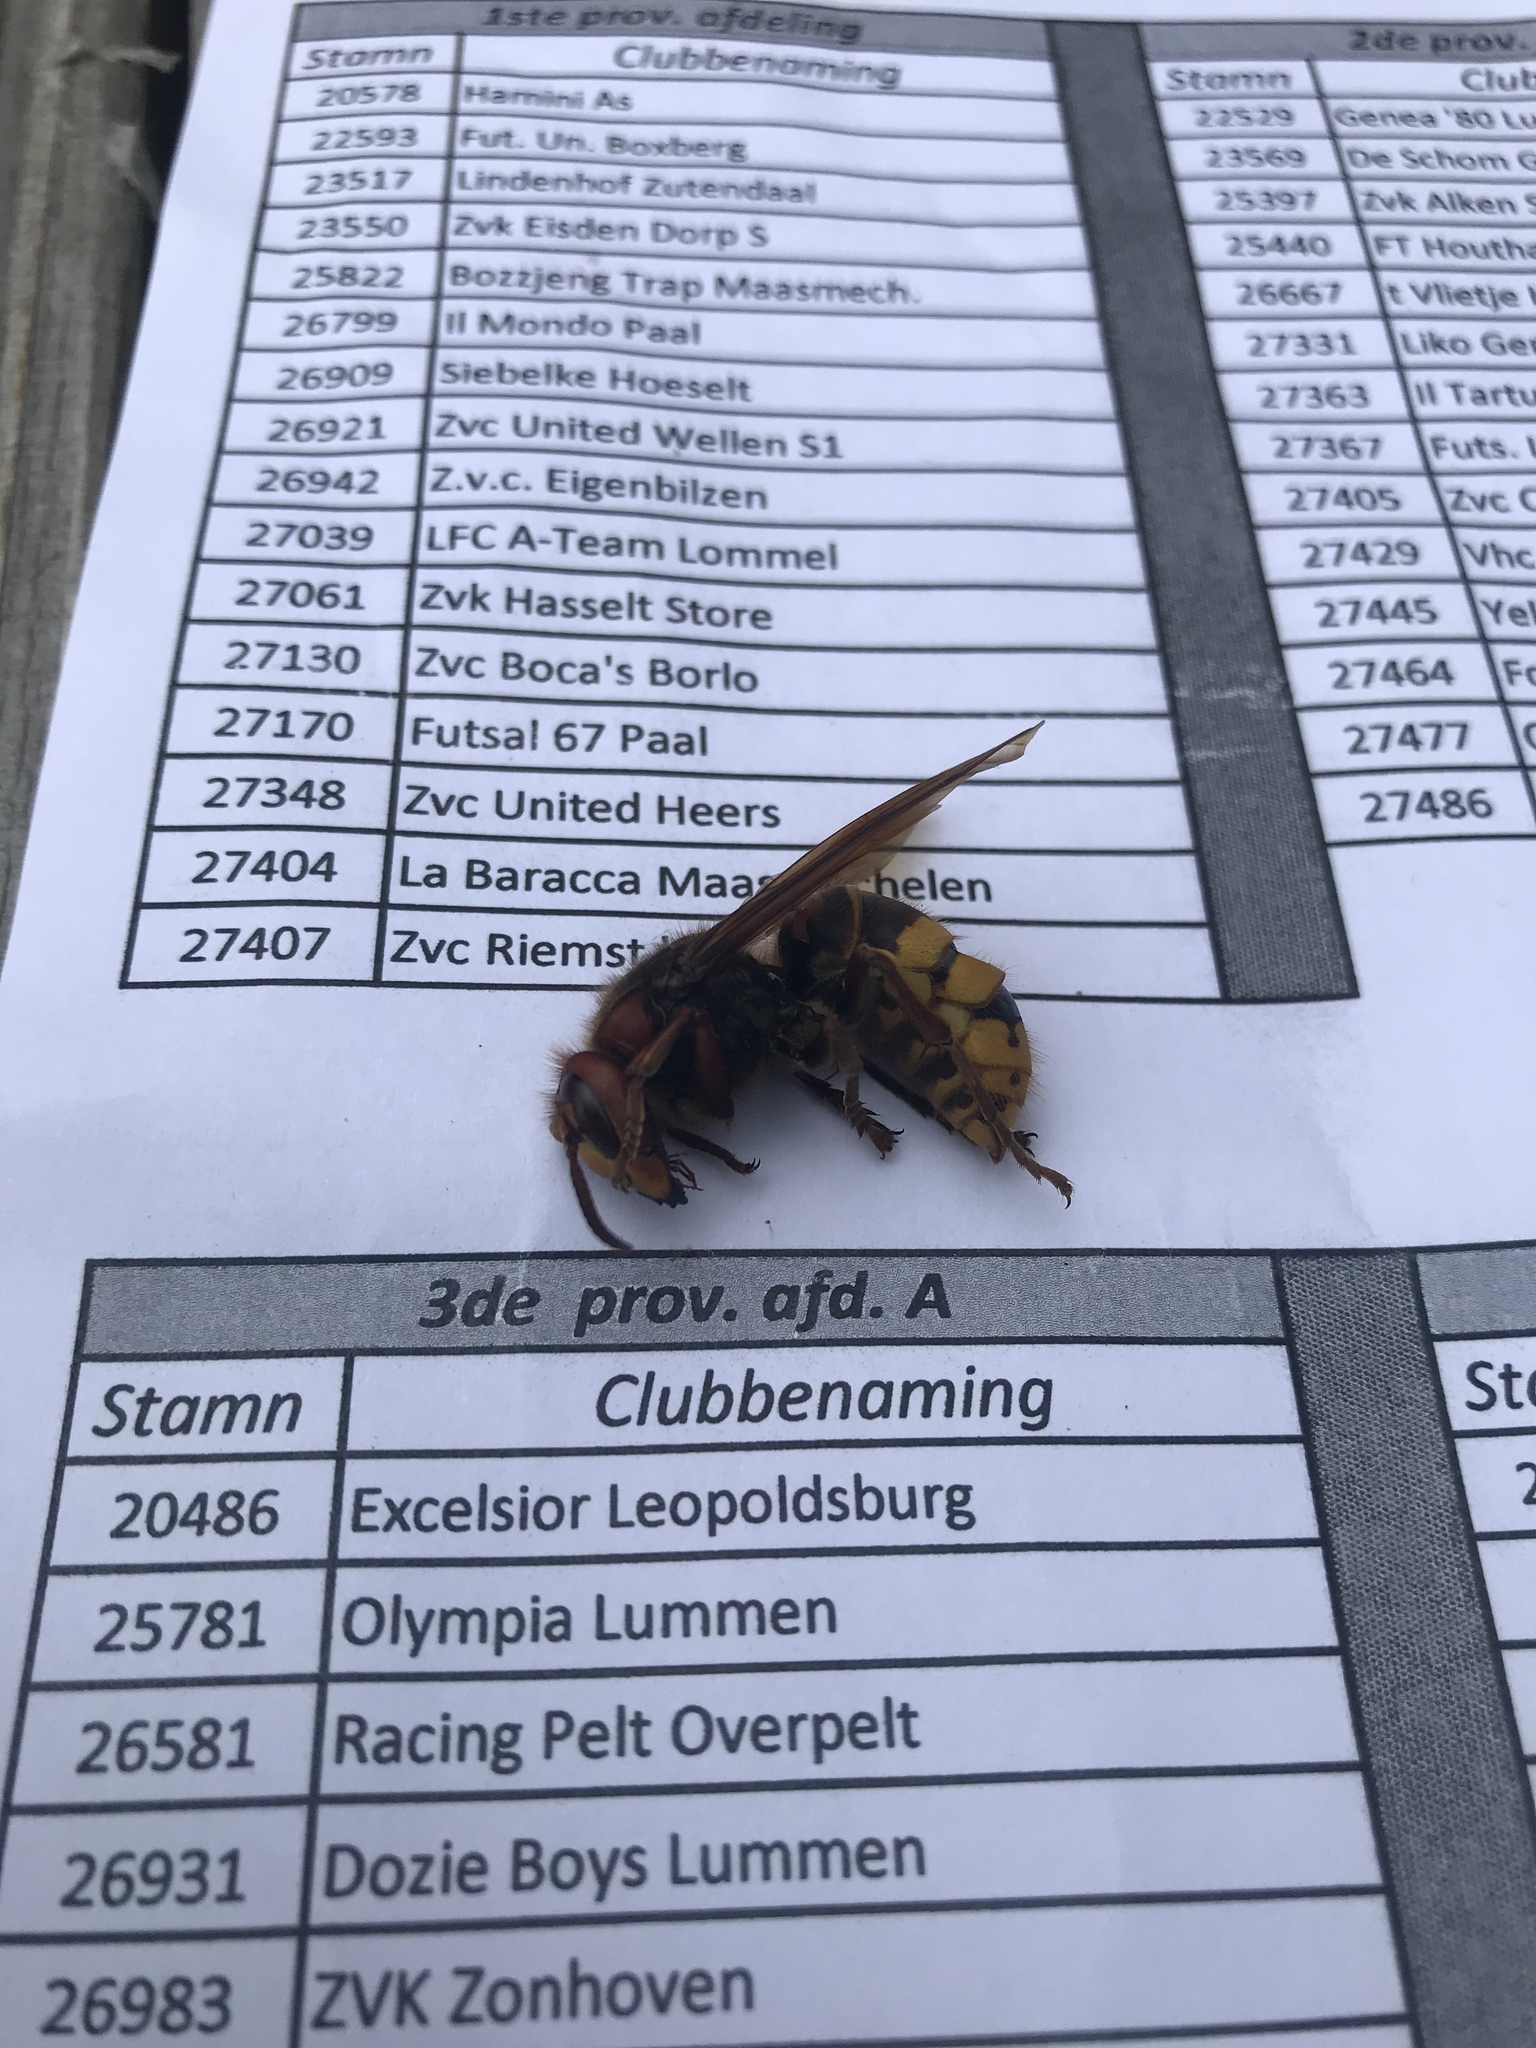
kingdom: Animalia
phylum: Arthropoda
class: Insecta
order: Hymenoptera
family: Vespidae
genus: Vespa
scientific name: Vespa crabro
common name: Hornet
